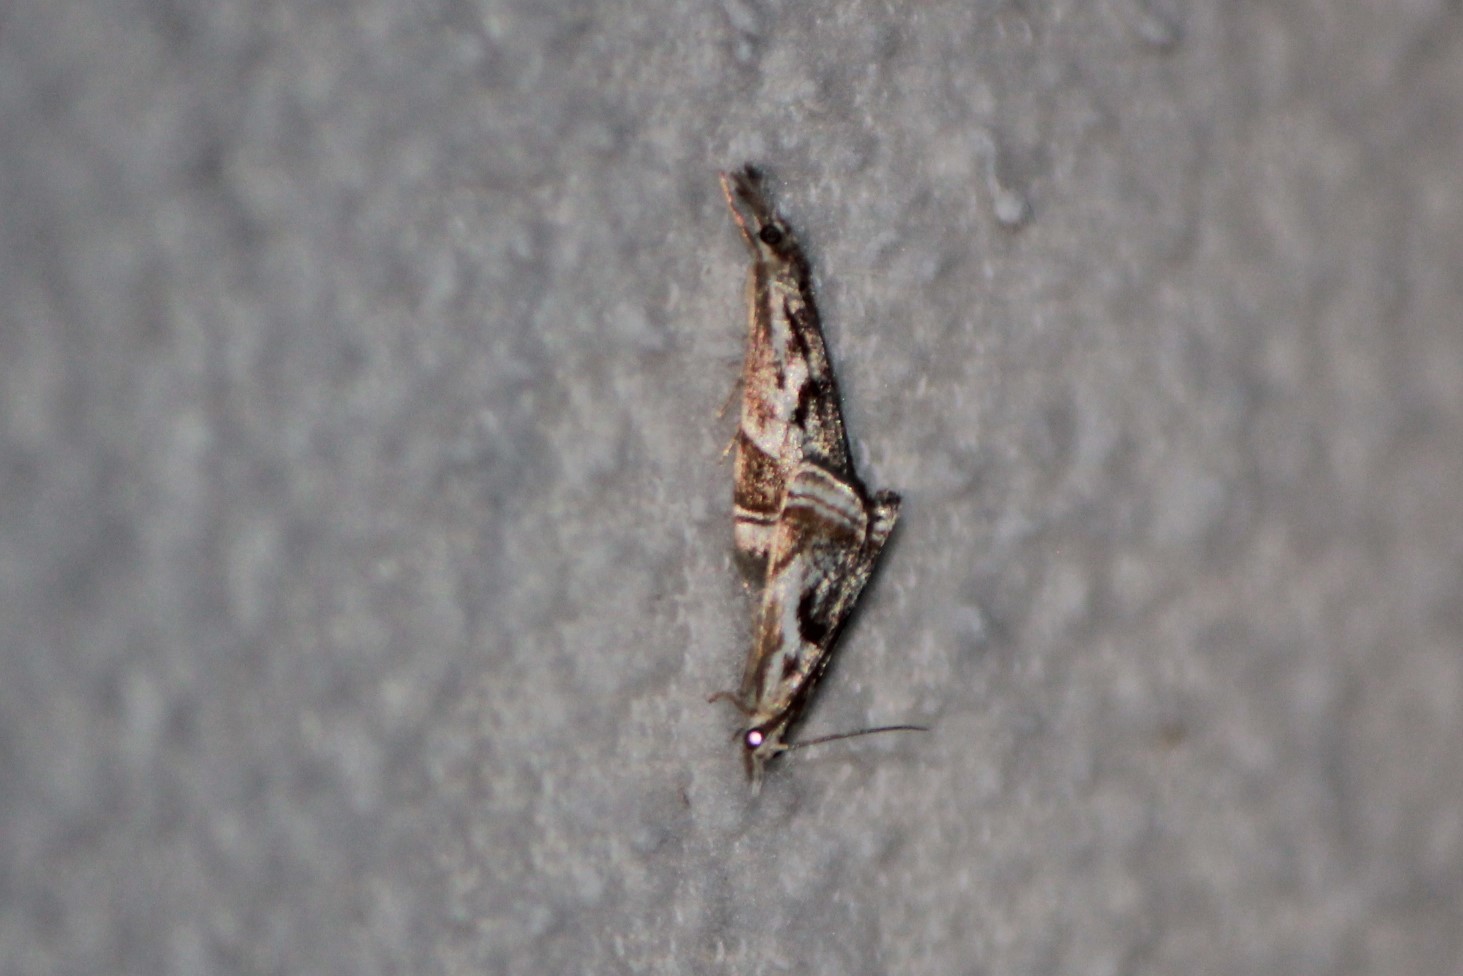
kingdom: Animalia
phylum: Arthropoda
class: Insecta
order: Lepidoptera
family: Crambidae
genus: Microcrambus
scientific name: Microcrambus elegans
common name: Elegant grass-veneer
